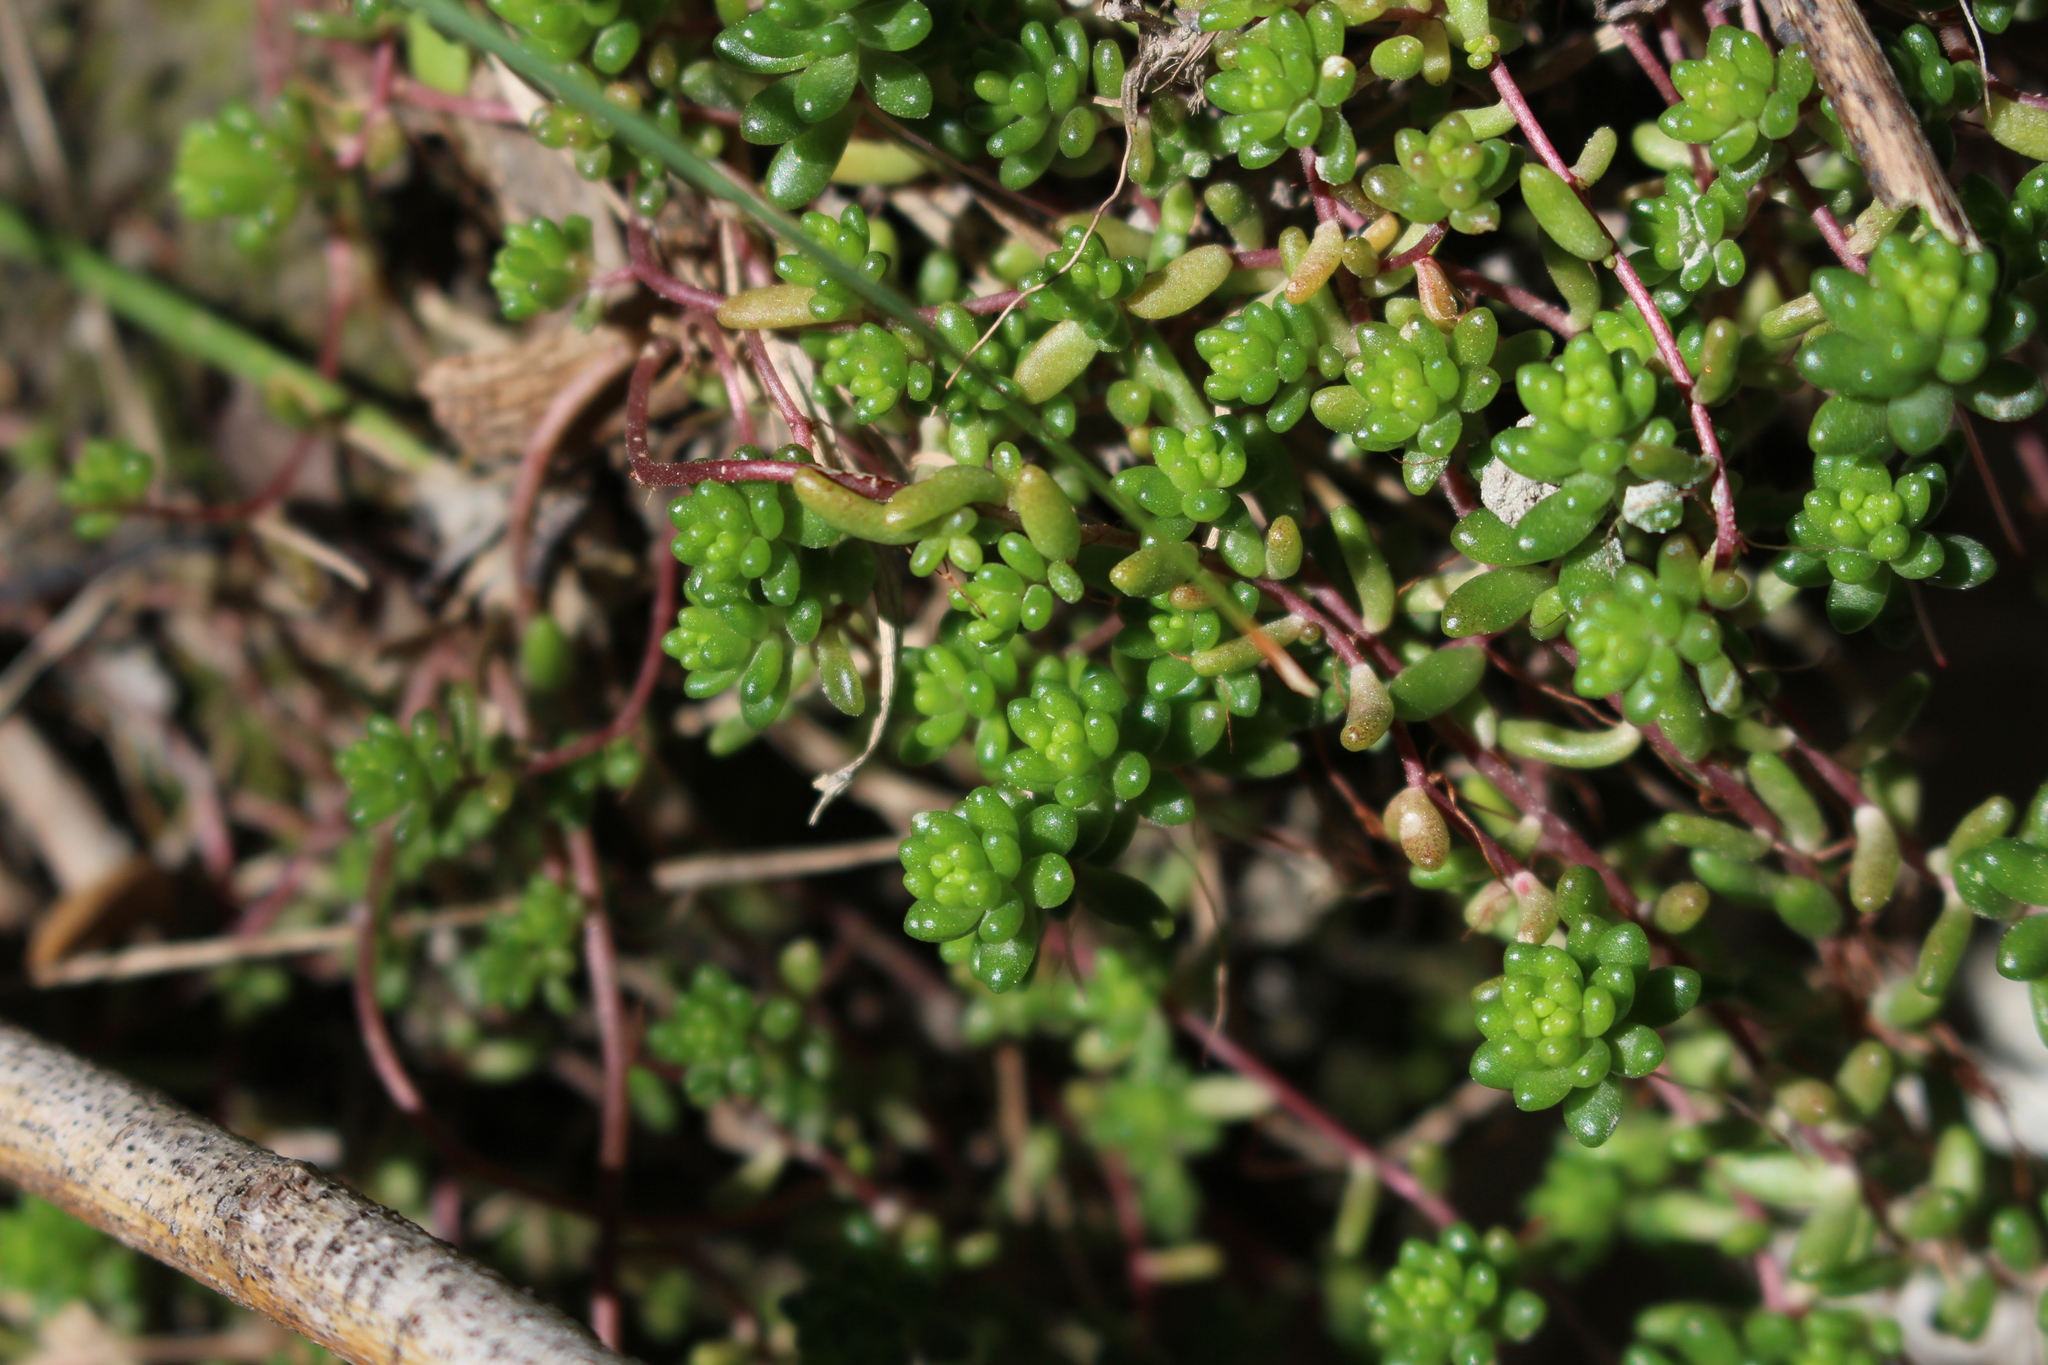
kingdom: Plantae
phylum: Tracheophyta
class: Magnoliopsida
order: Saxifragales
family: Crassulaceae
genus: Sedum
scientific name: Sedum album
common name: White stonecrop
